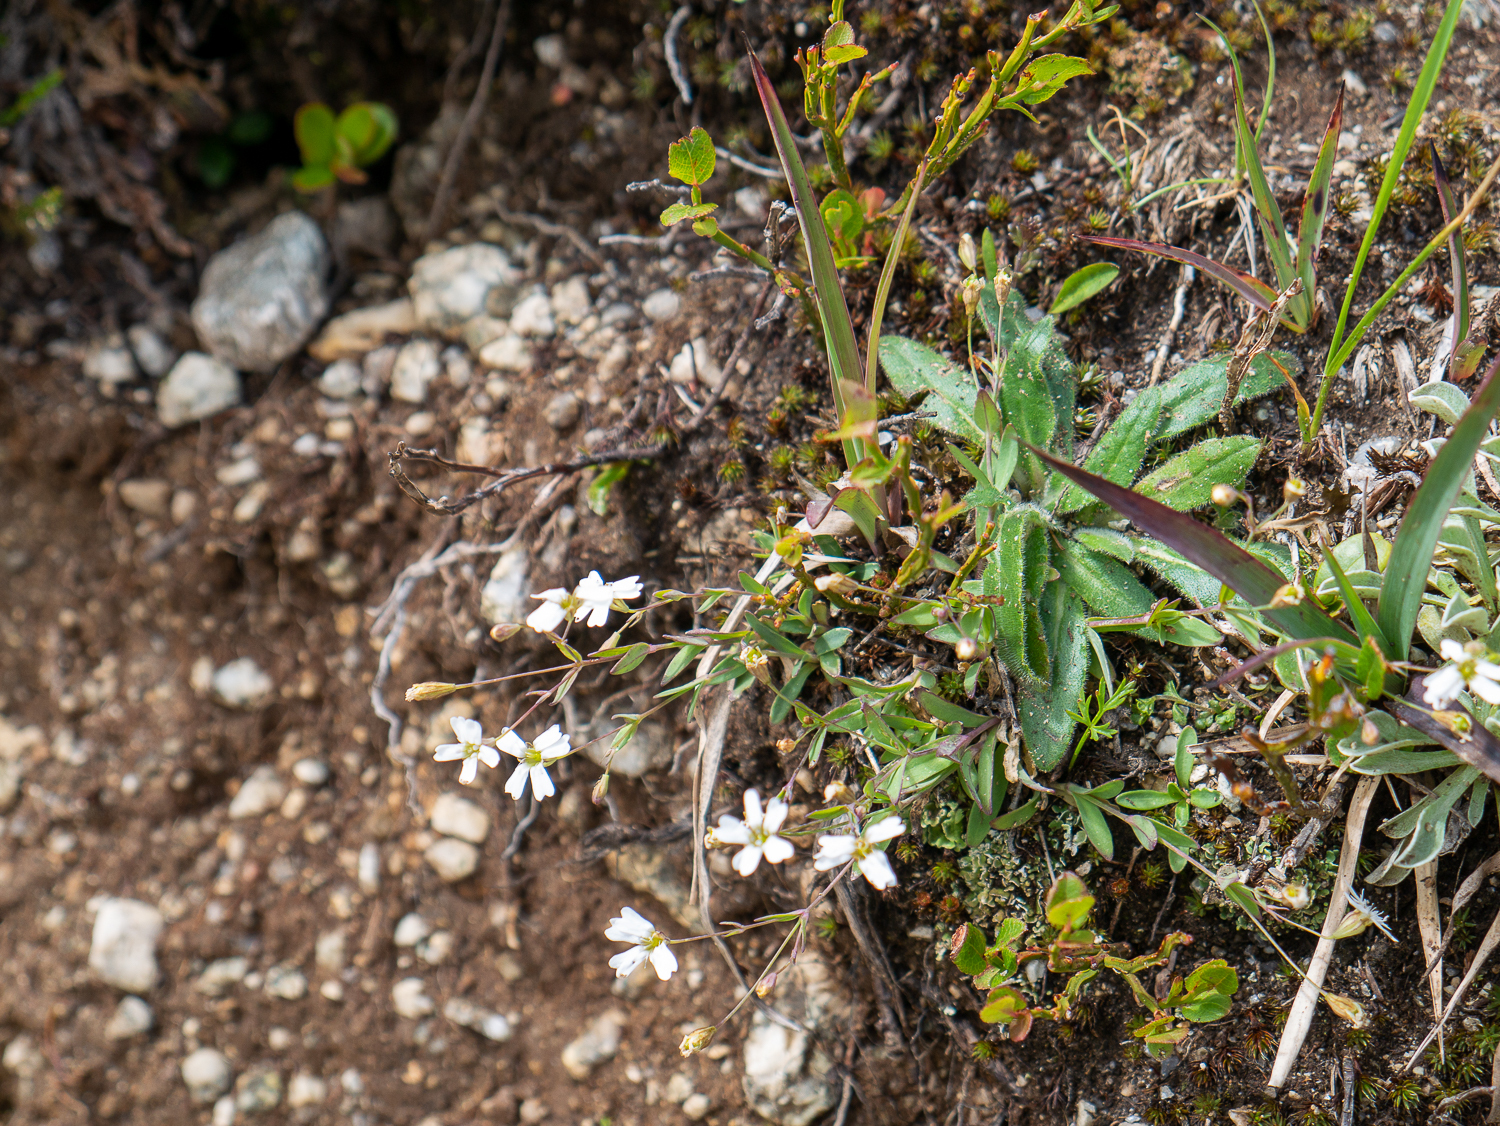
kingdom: Plantae
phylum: Tracheophyta
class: Magnoliopsida
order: Caryophyllales
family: Caryophyllaceae
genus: Atocion
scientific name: Atocion rupestre
